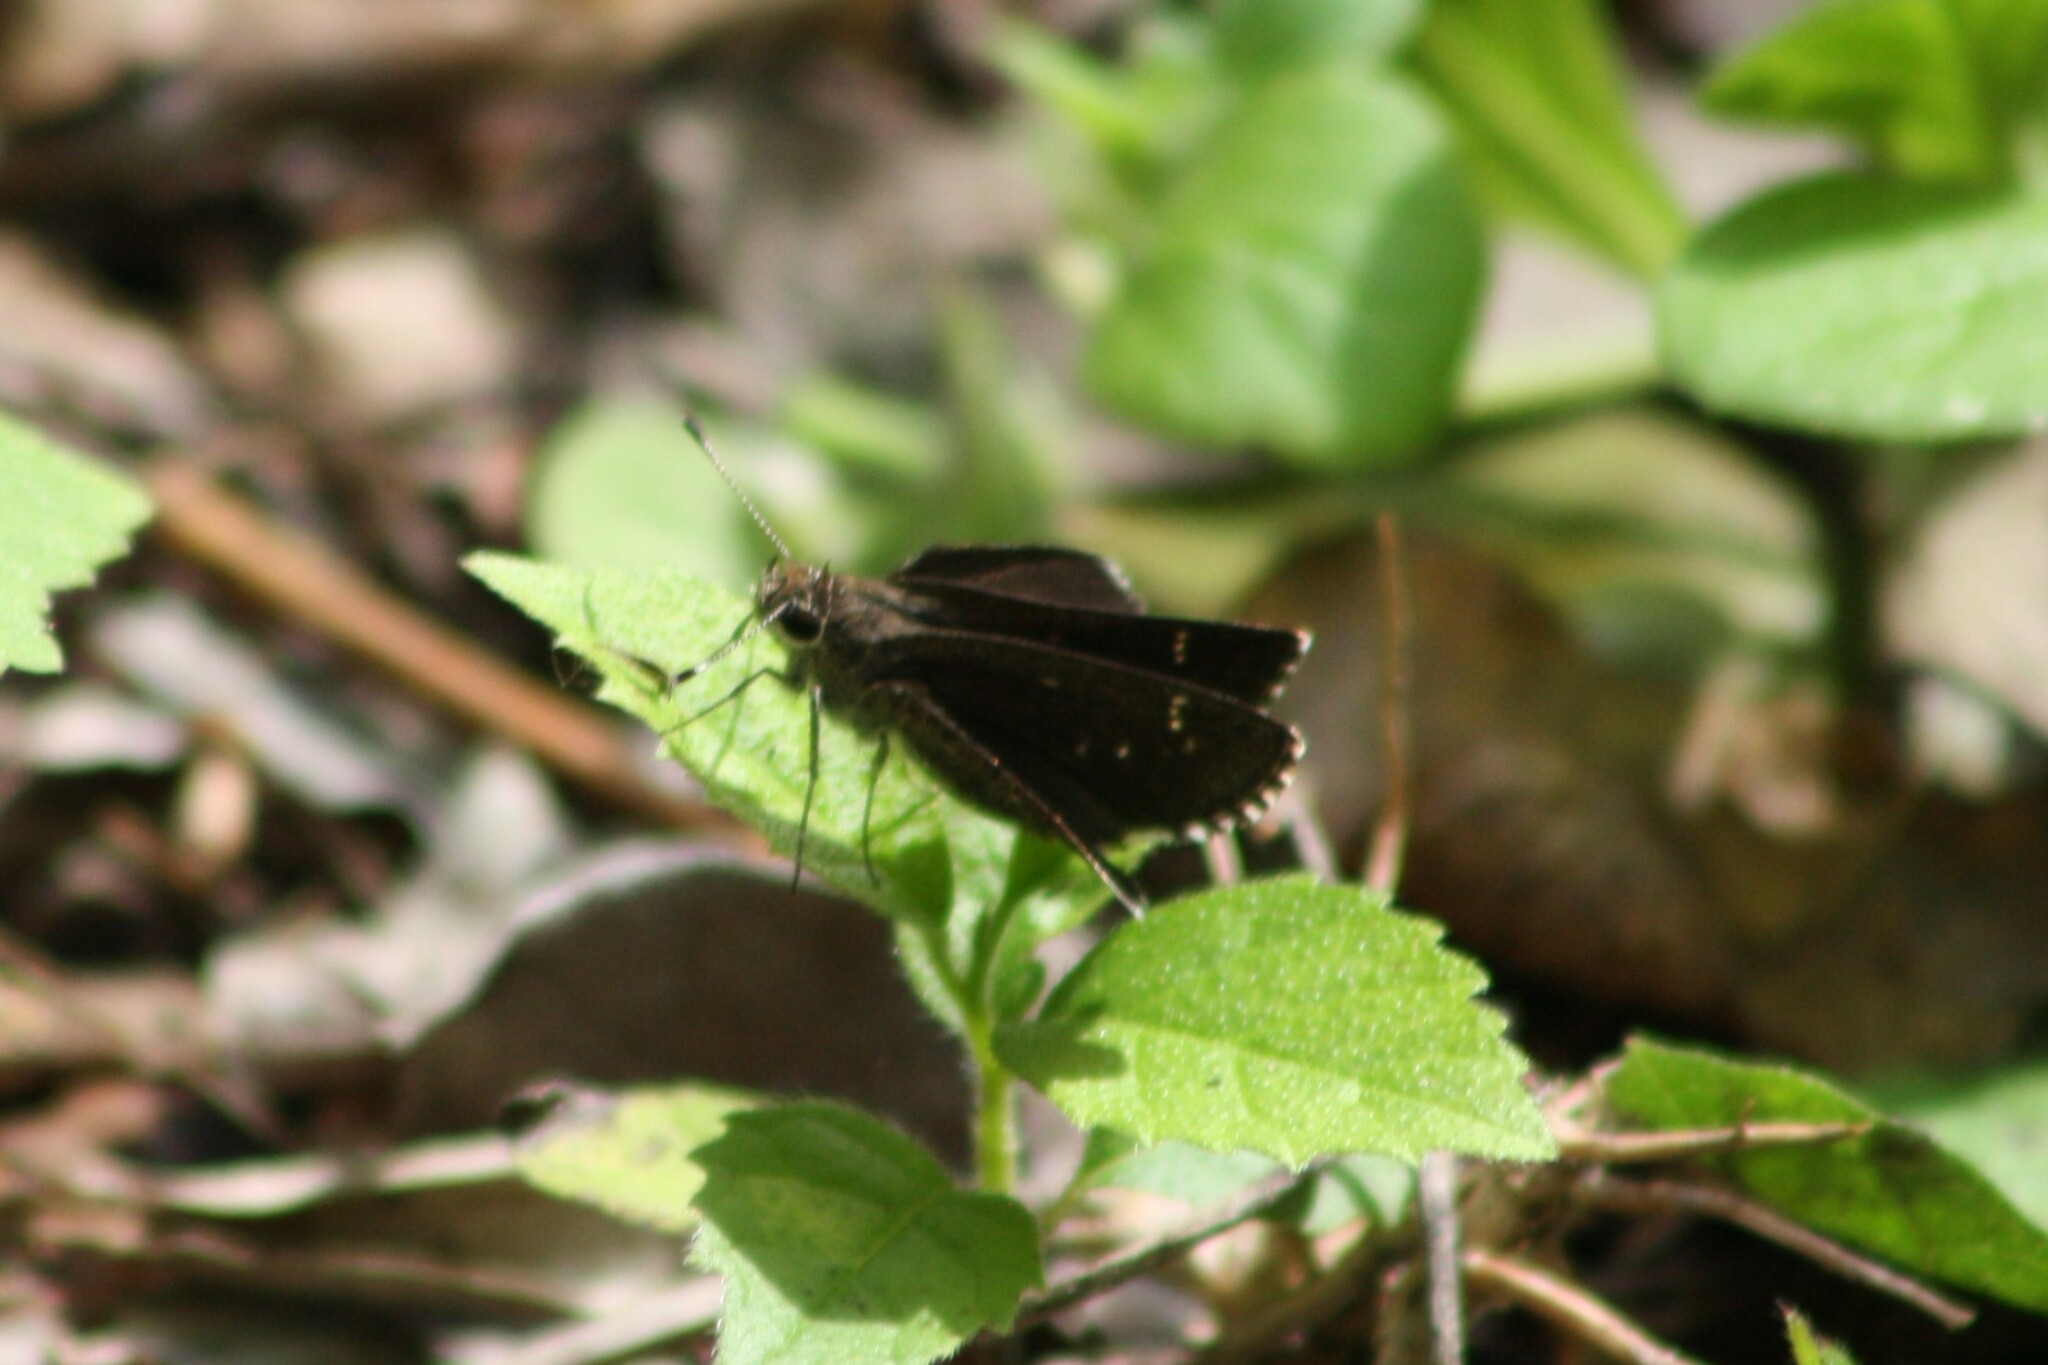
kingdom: Animalia
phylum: Arthropoda
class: Insecta
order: Lepidoptera
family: Hesperiidae
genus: Mastor
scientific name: Mastor celia
